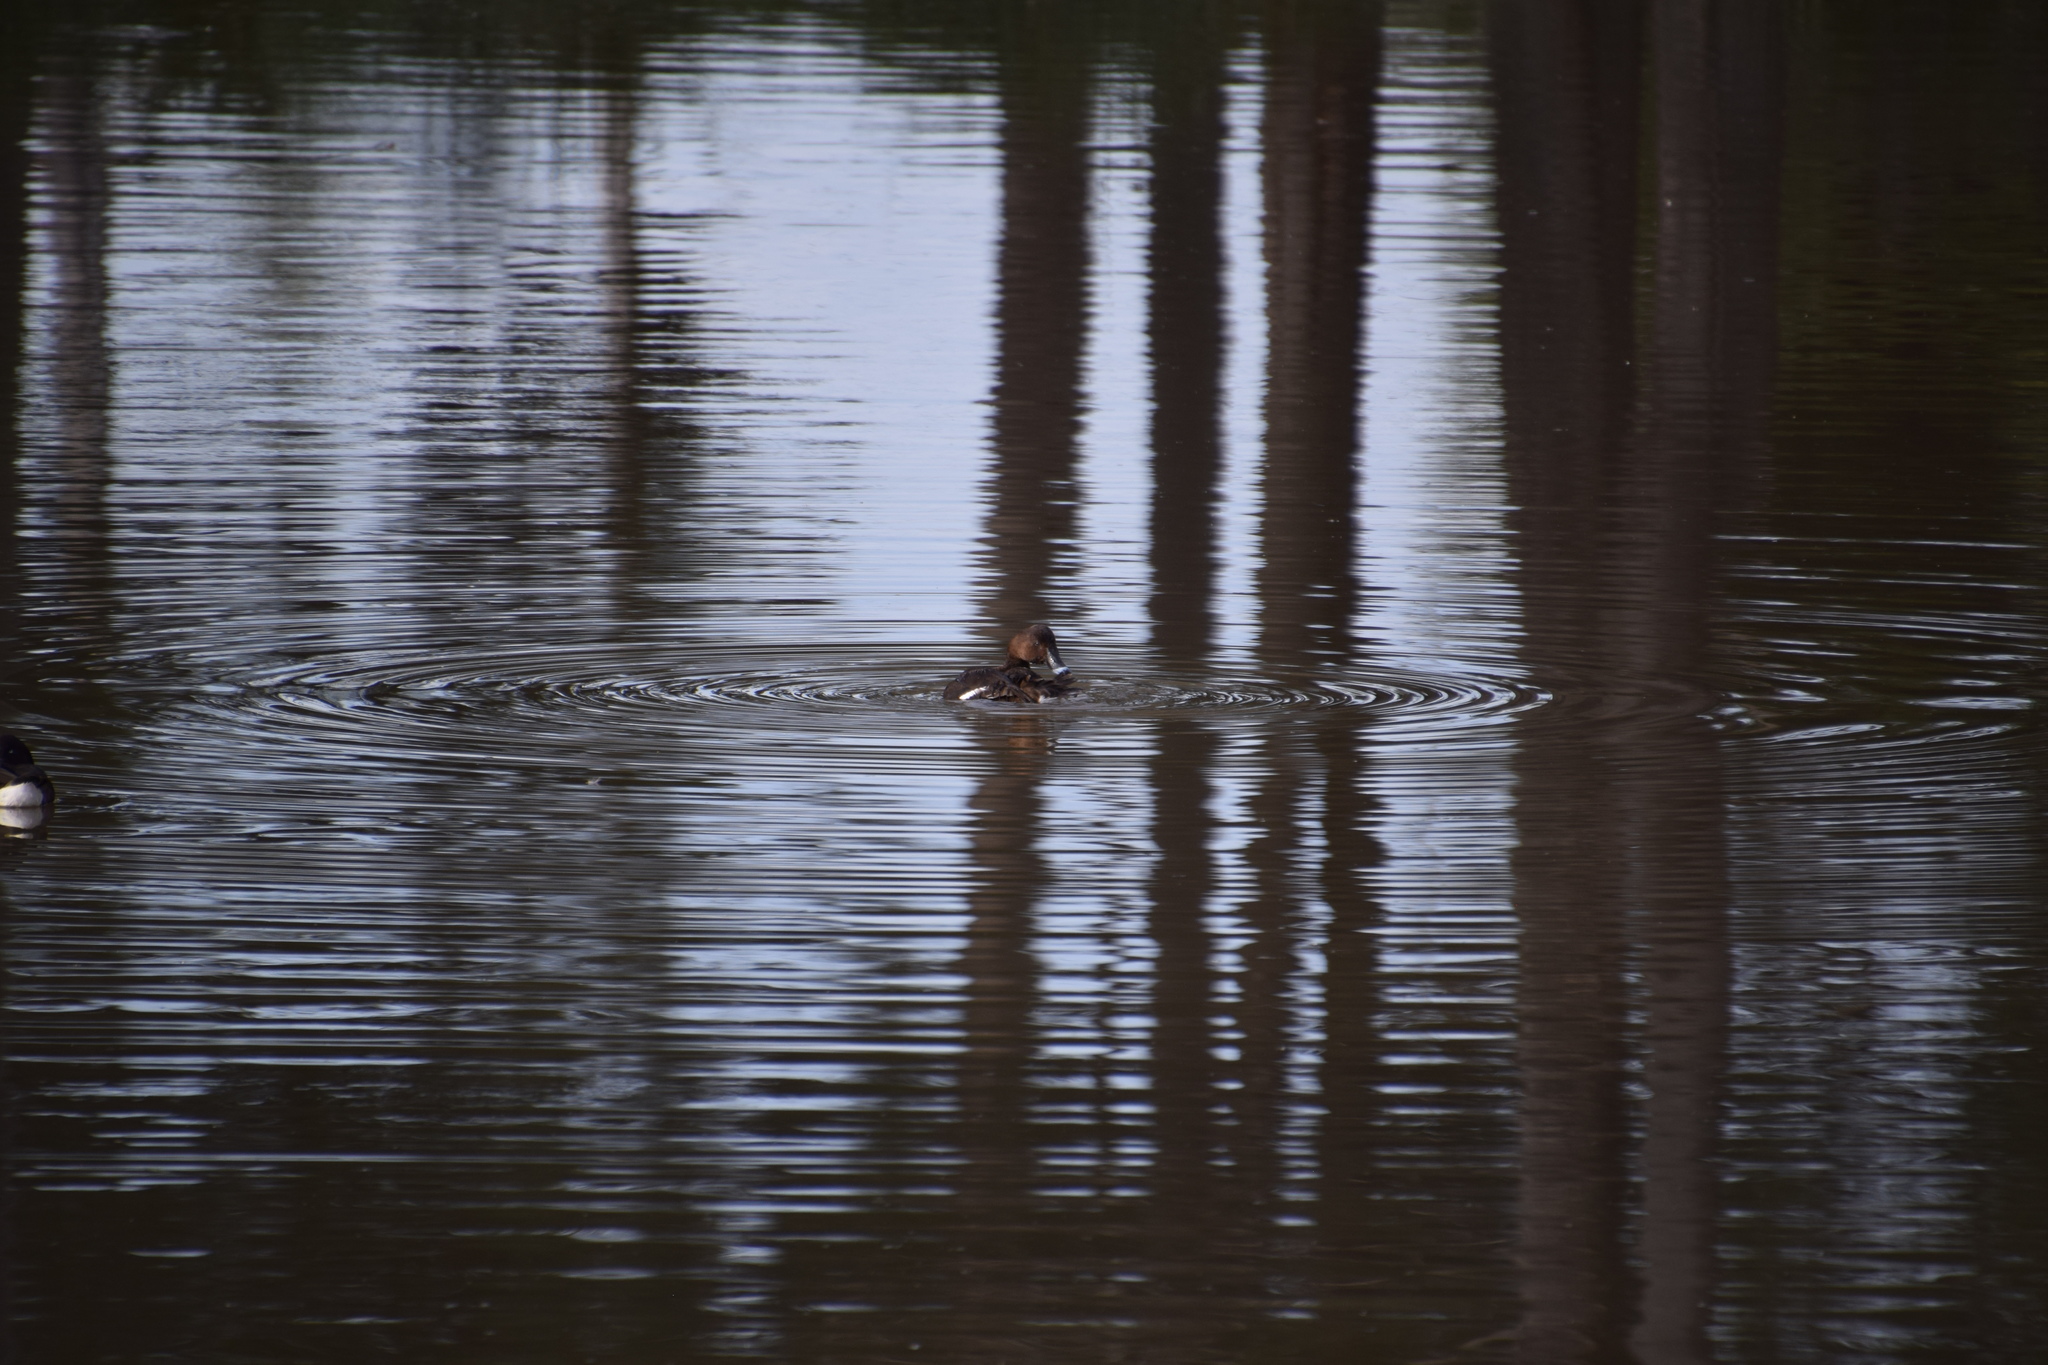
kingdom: Animalia
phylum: Chordata
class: Aves
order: Anseriformes
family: Anatidae
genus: Aythya
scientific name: Aythya australis
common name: Hardhead
